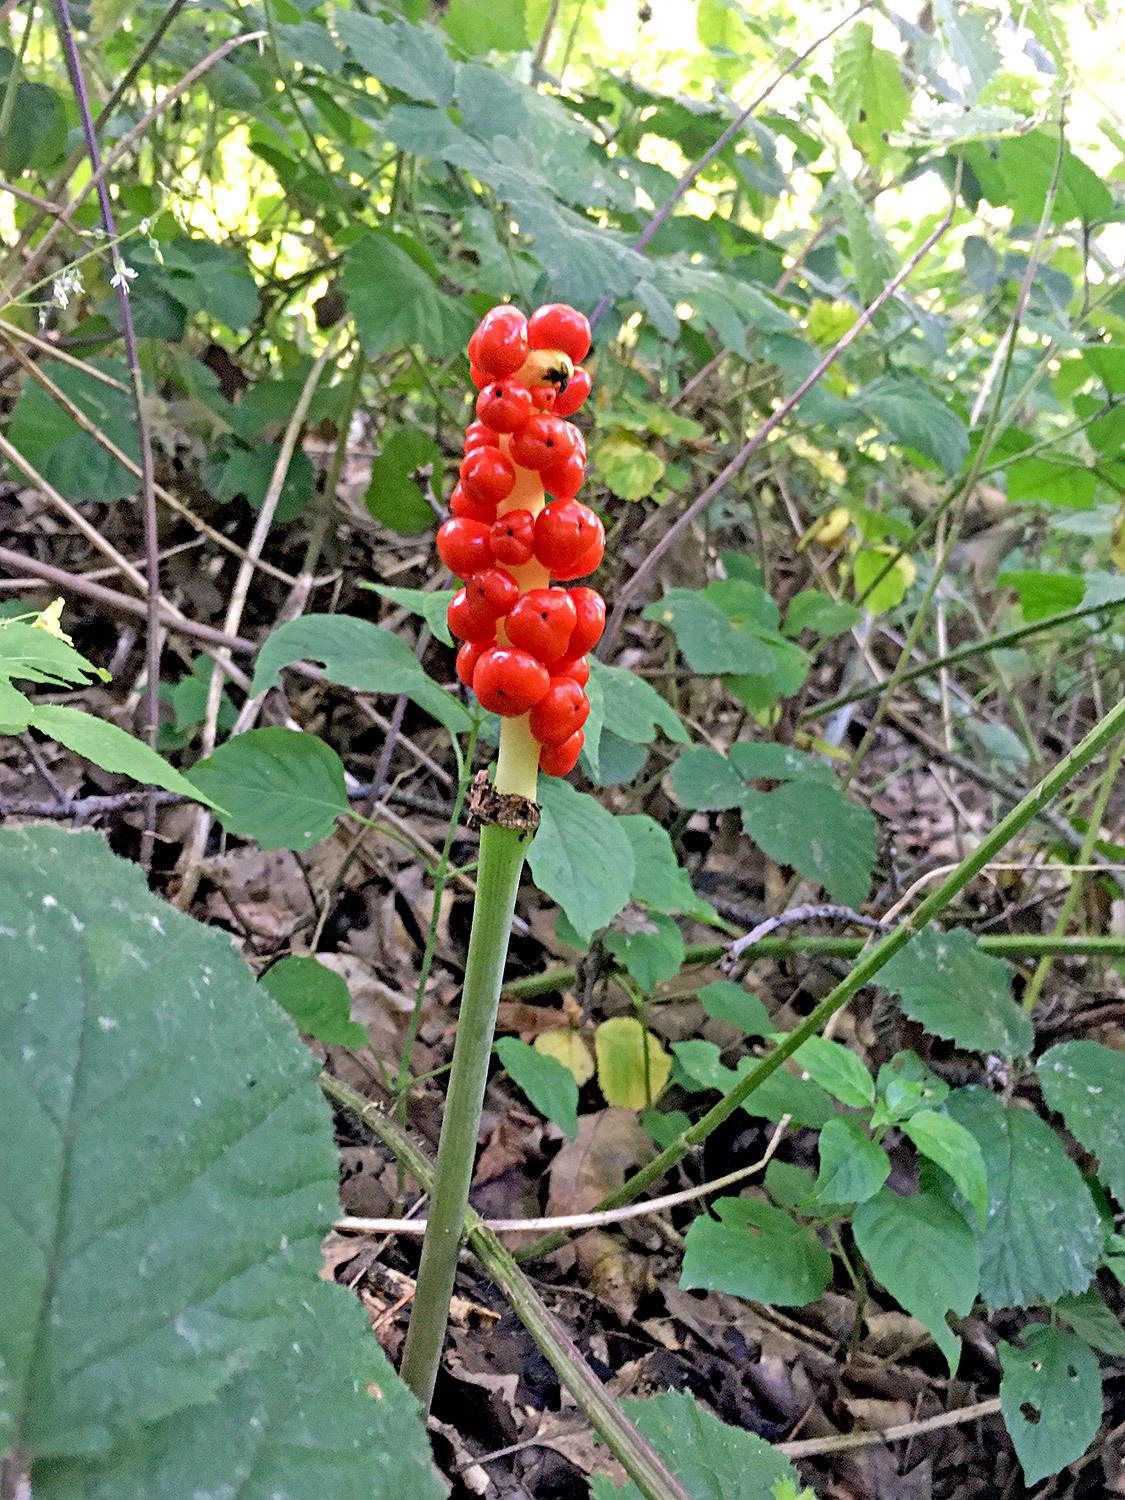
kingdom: Plantae
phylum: Tracheophyta
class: Liliopsida
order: Alismatales
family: Araceae
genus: Arum
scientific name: Arum maculatum
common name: Lords-and-ladies
